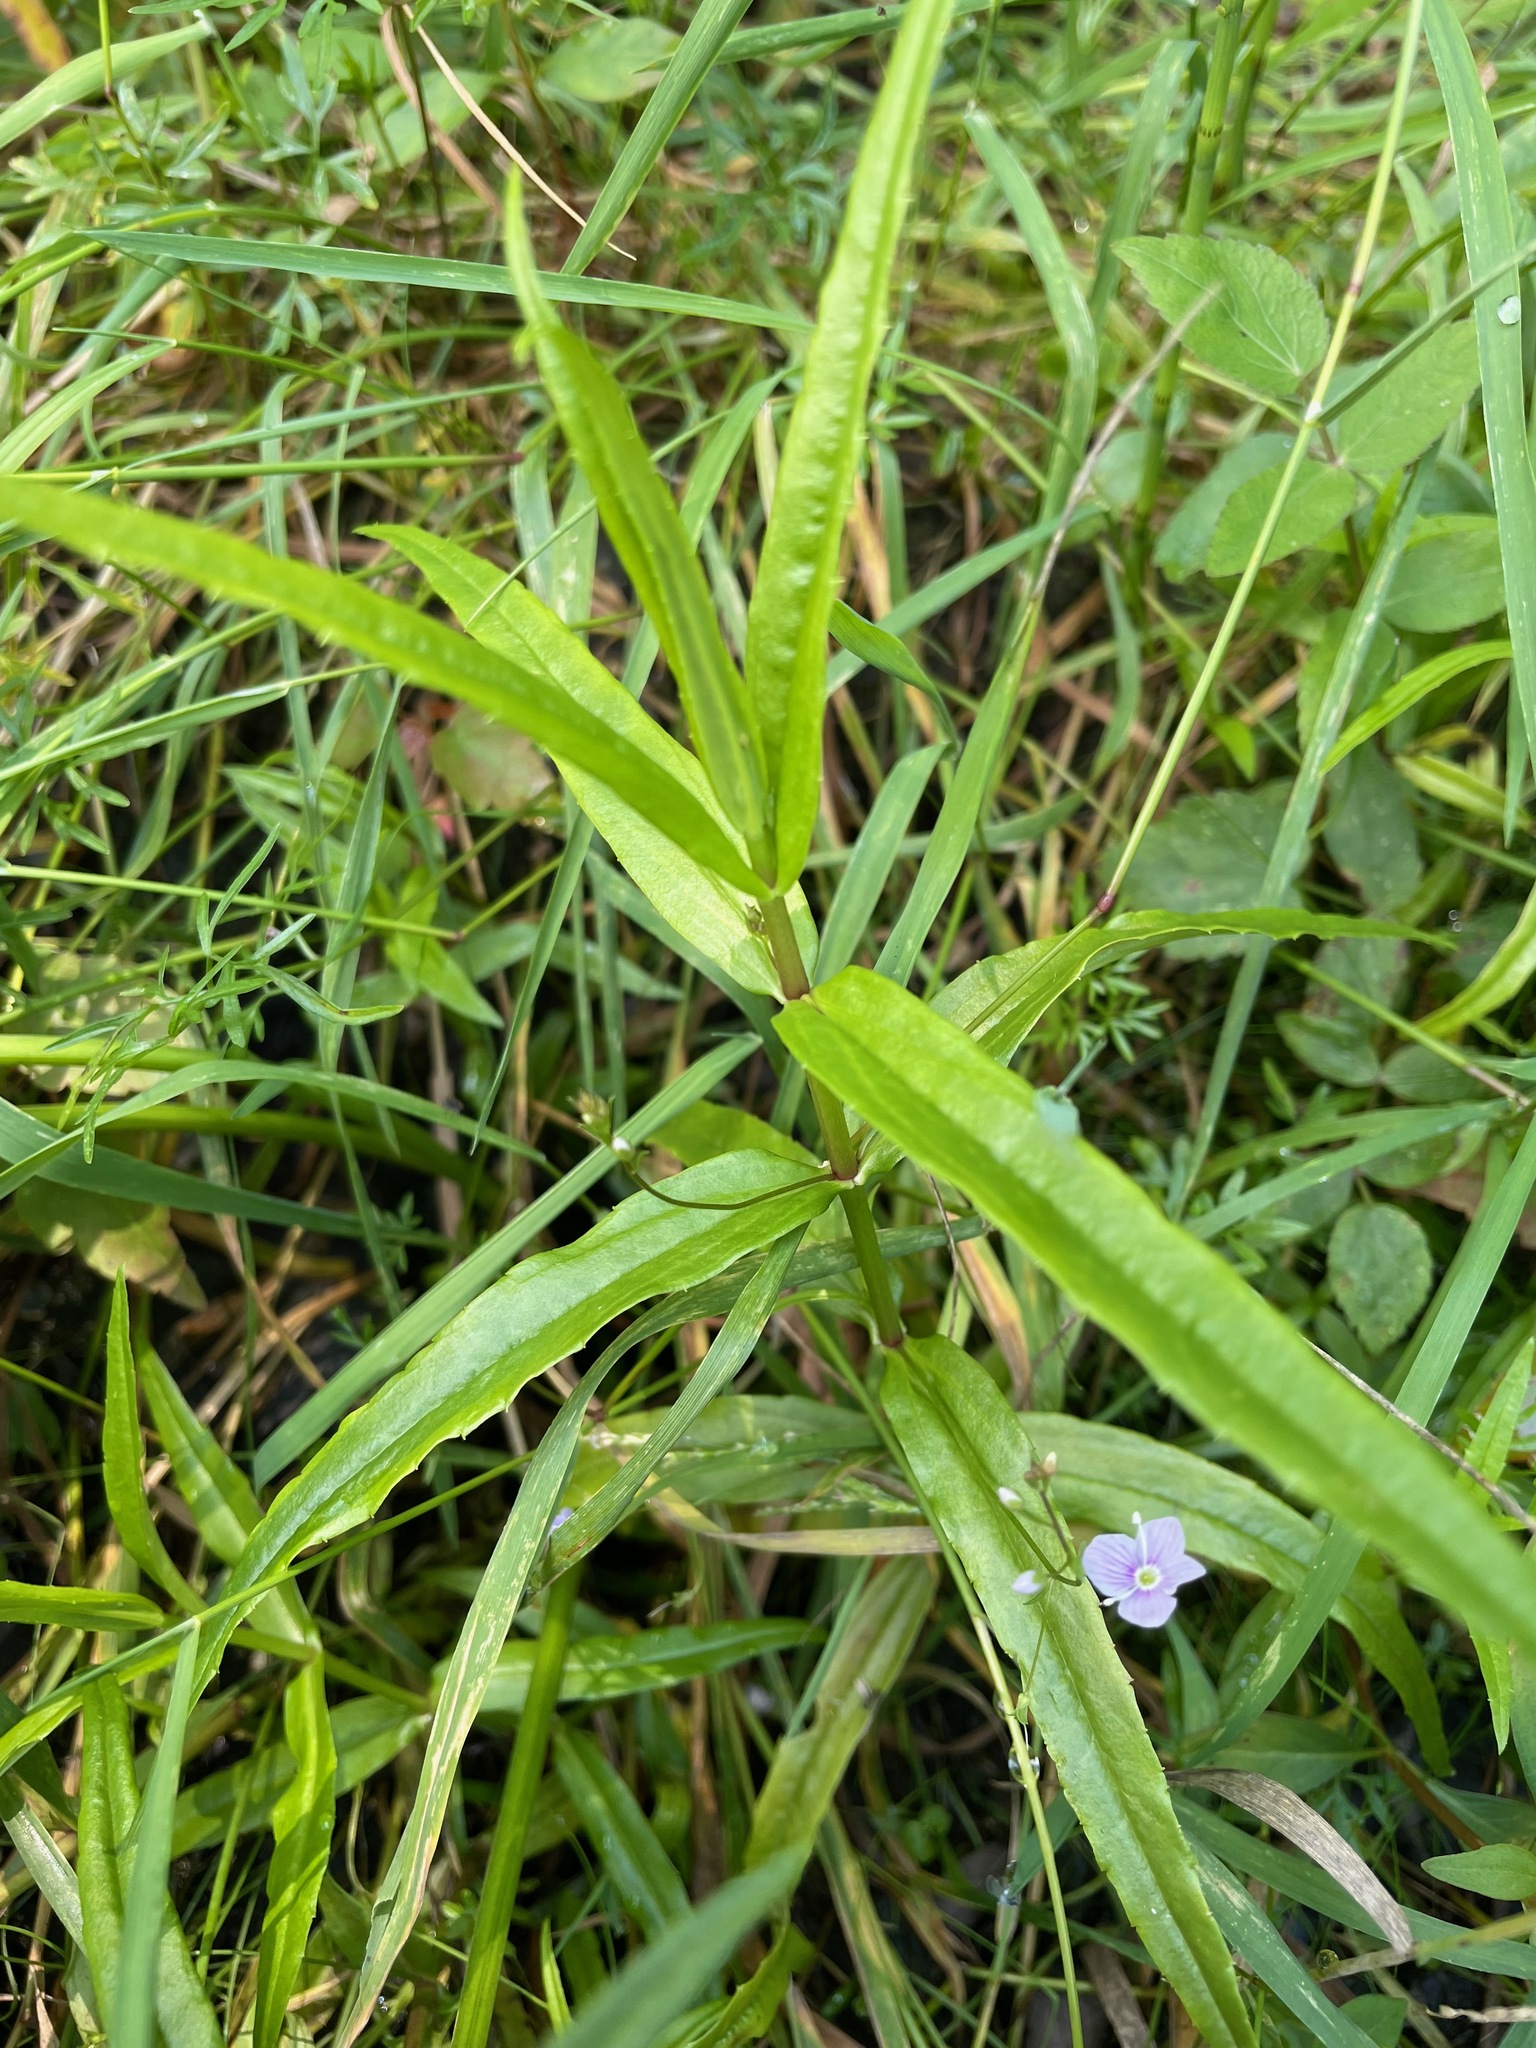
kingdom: Plantae
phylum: Tracheophyta
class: Magnoliopsida
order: Lamiales
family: Plantaginaceae
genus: Veronica
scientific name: Veronica scutellata
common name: Marsh speedwell
